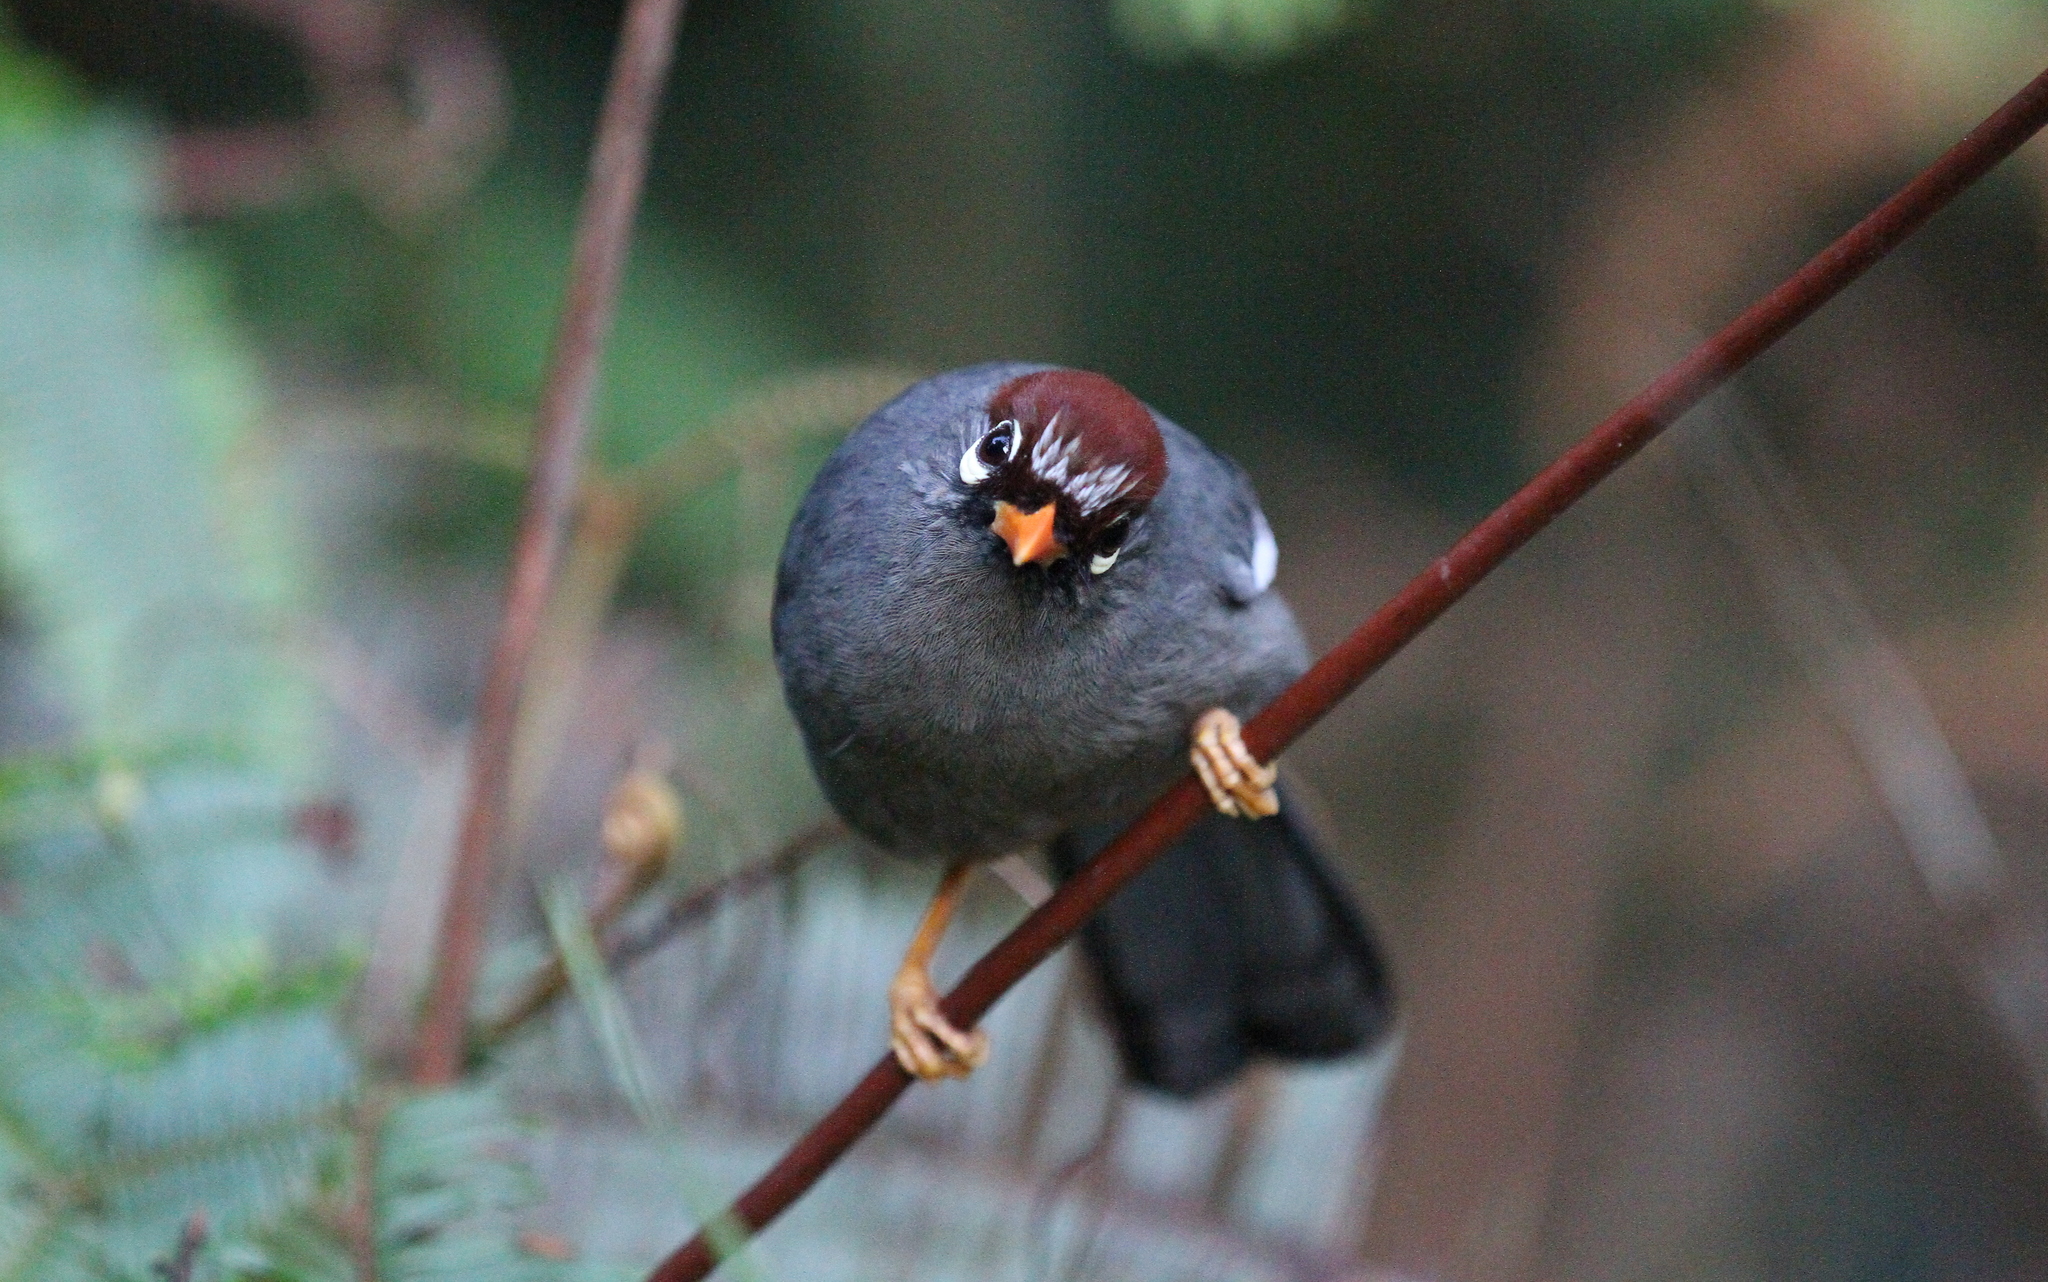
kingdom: Animalia
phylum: Chordata
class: Aves
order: Passeriformes
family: Leiothrichidae
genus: Garrulax
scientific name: Garrulax mitratus
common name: Chestnut-capped laughingthrush
